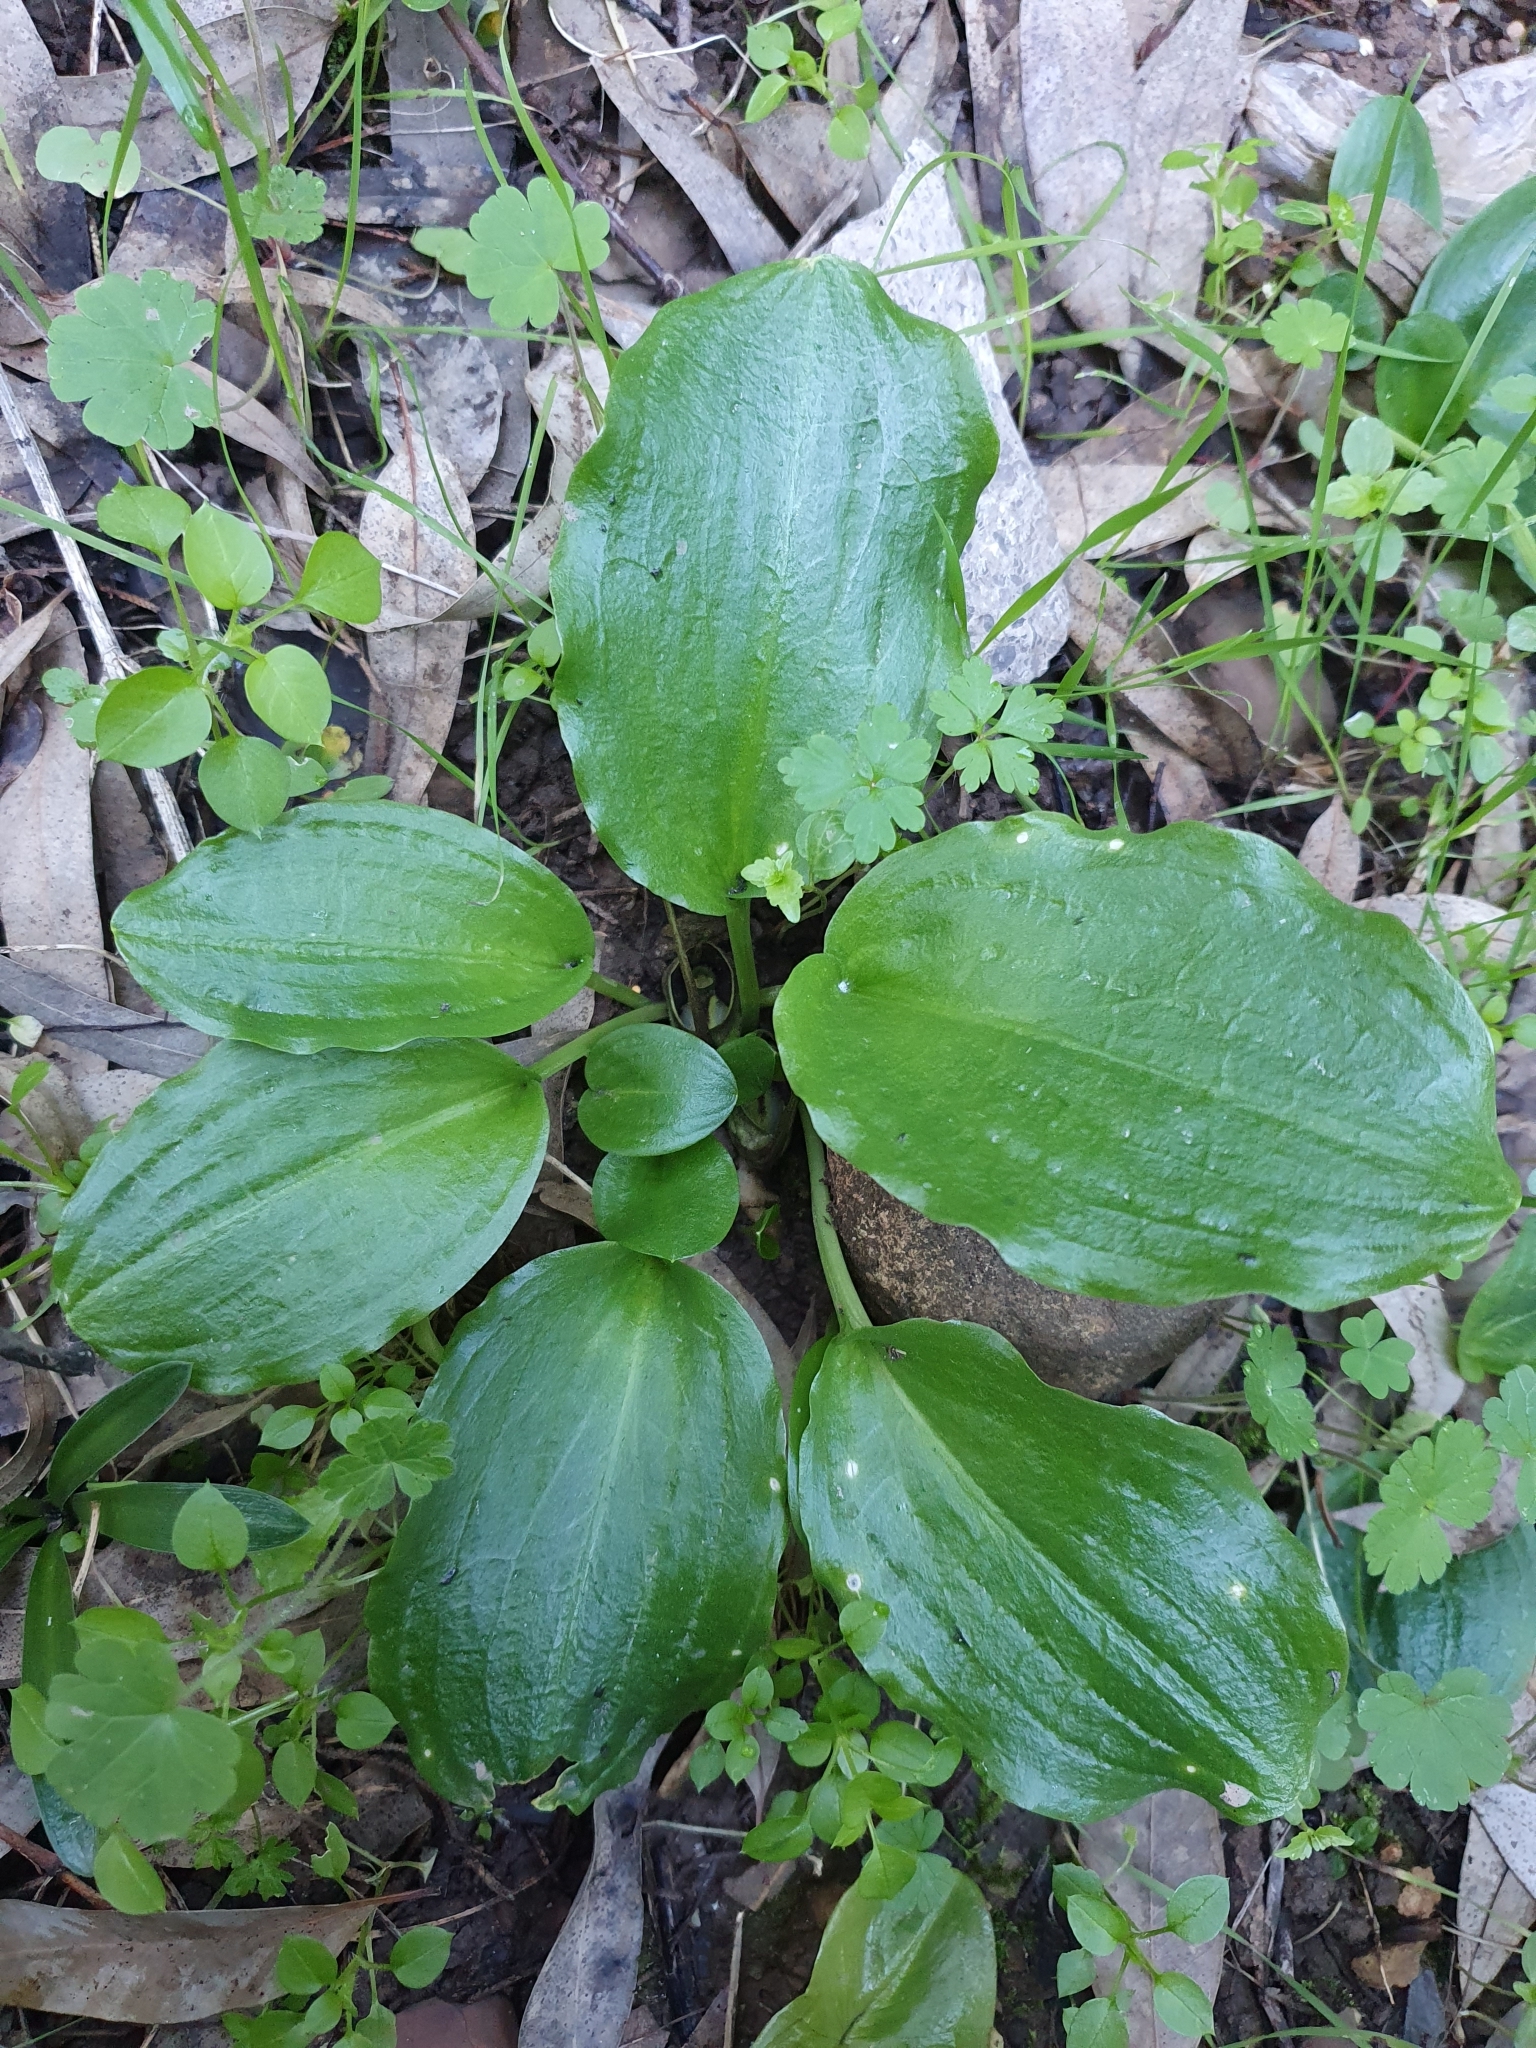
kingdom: Plantae
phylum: Tracheophyta
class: Liliopsida
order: Alismatales
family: Araceae
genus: Ambrosina
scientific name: Ambrosina bassii
